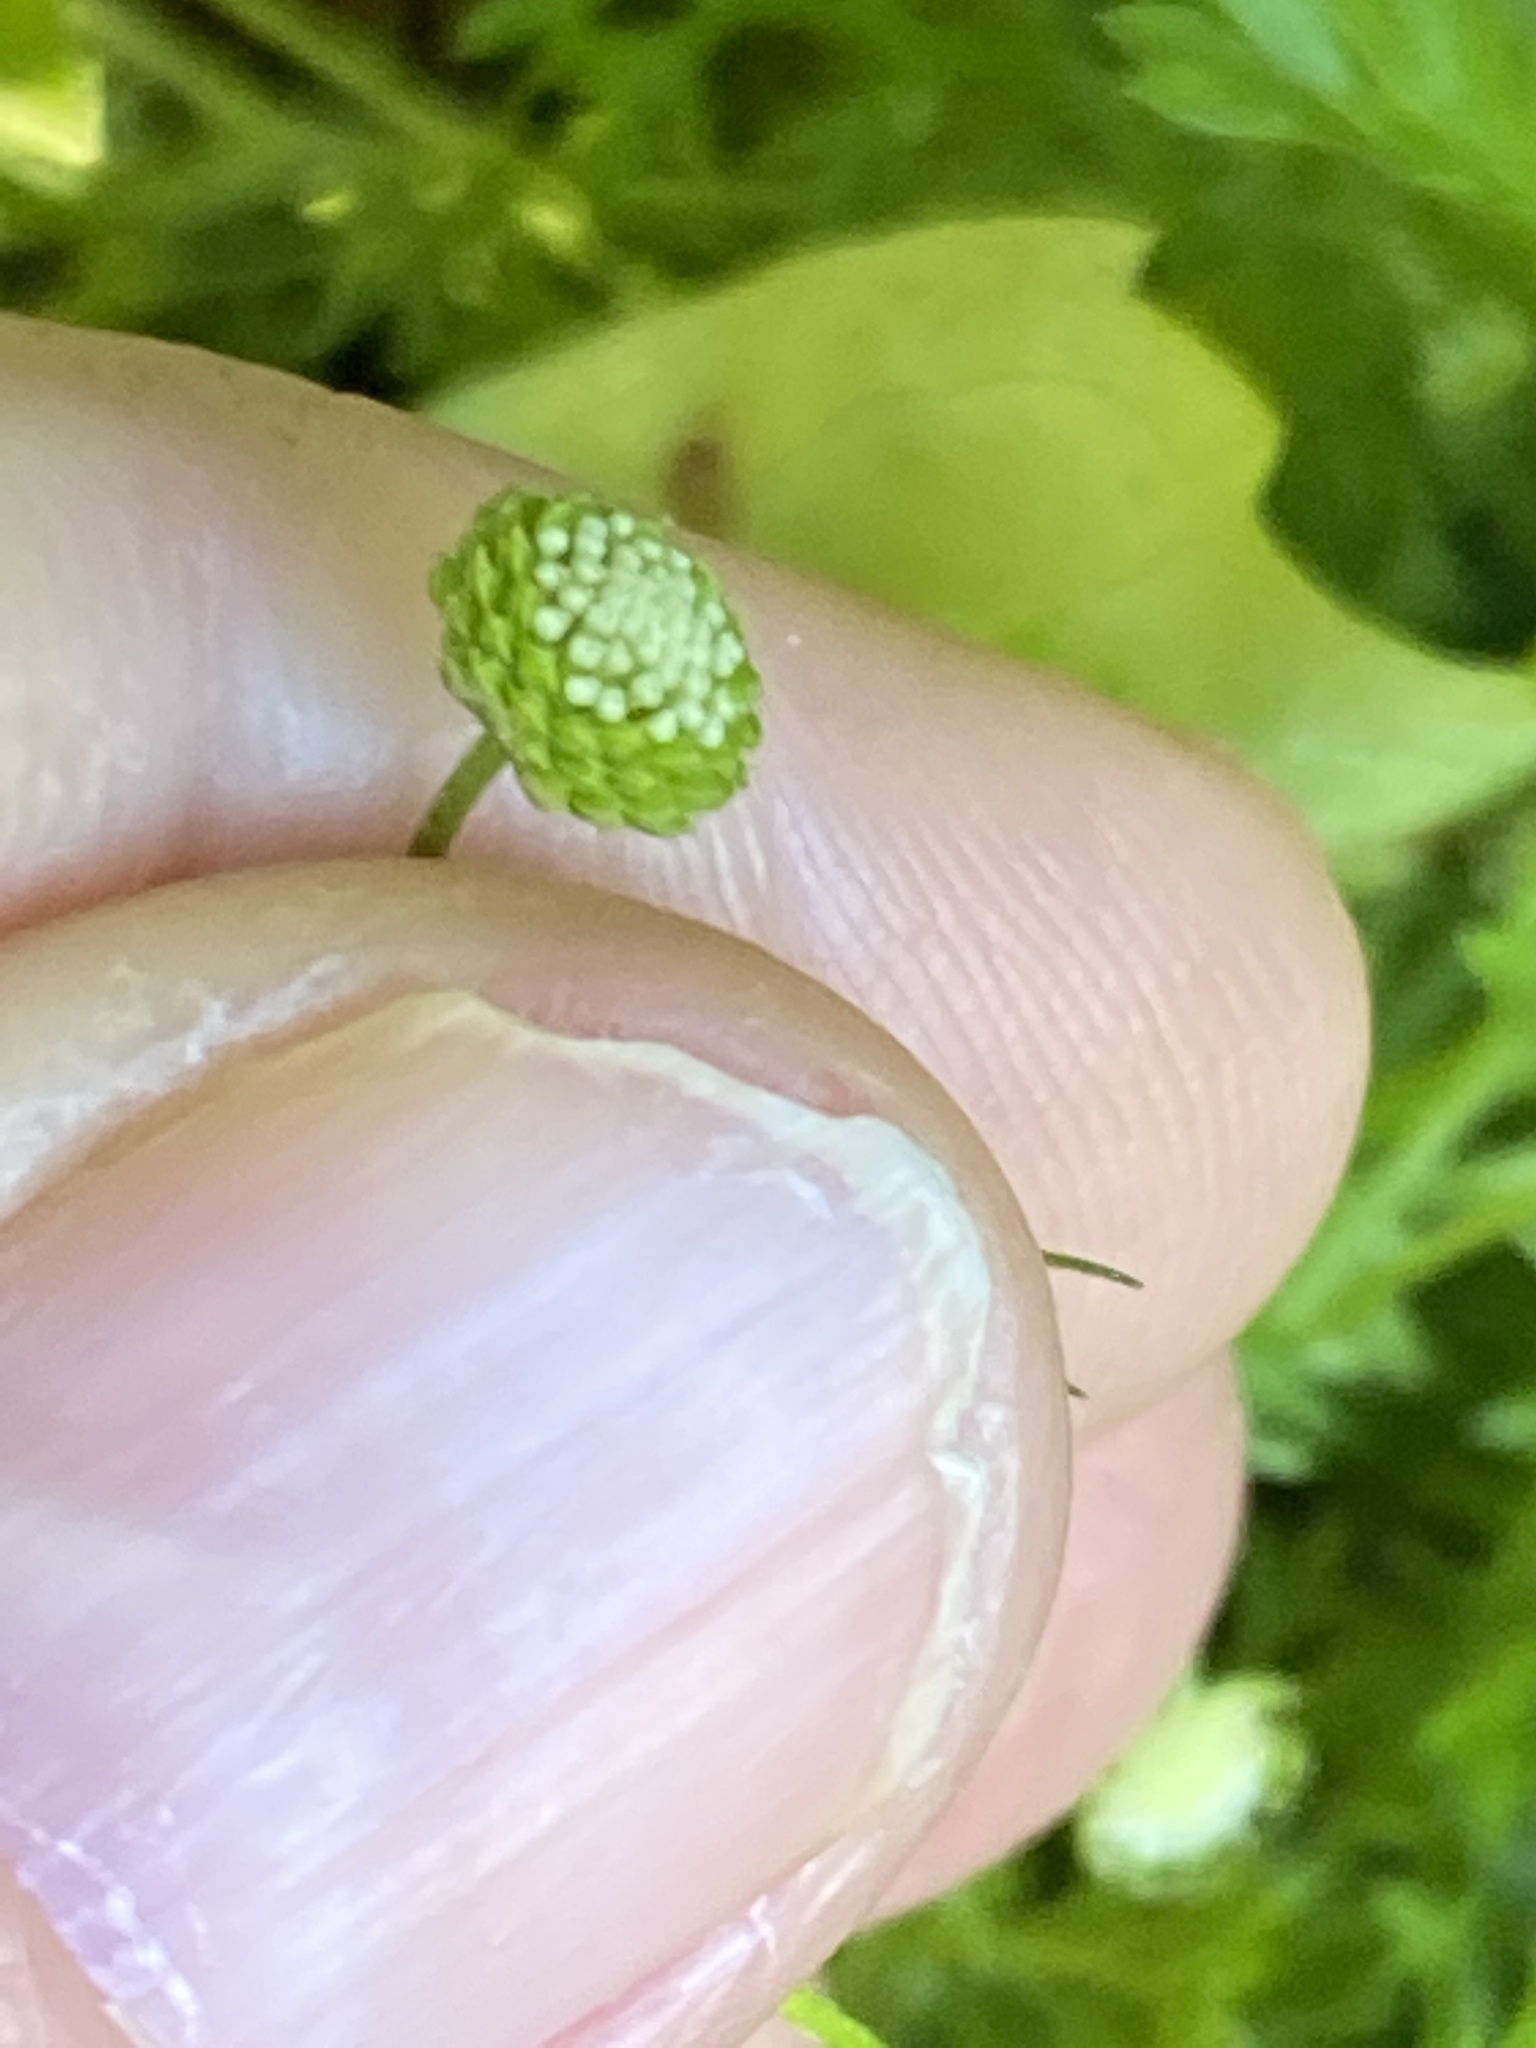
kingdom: Plantae
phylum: Tracheophyta
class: Magnoliopsida
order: Asterales
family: Asteraceae
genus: Cotula
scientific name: Cotula australis
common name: Australian waterbuttons
